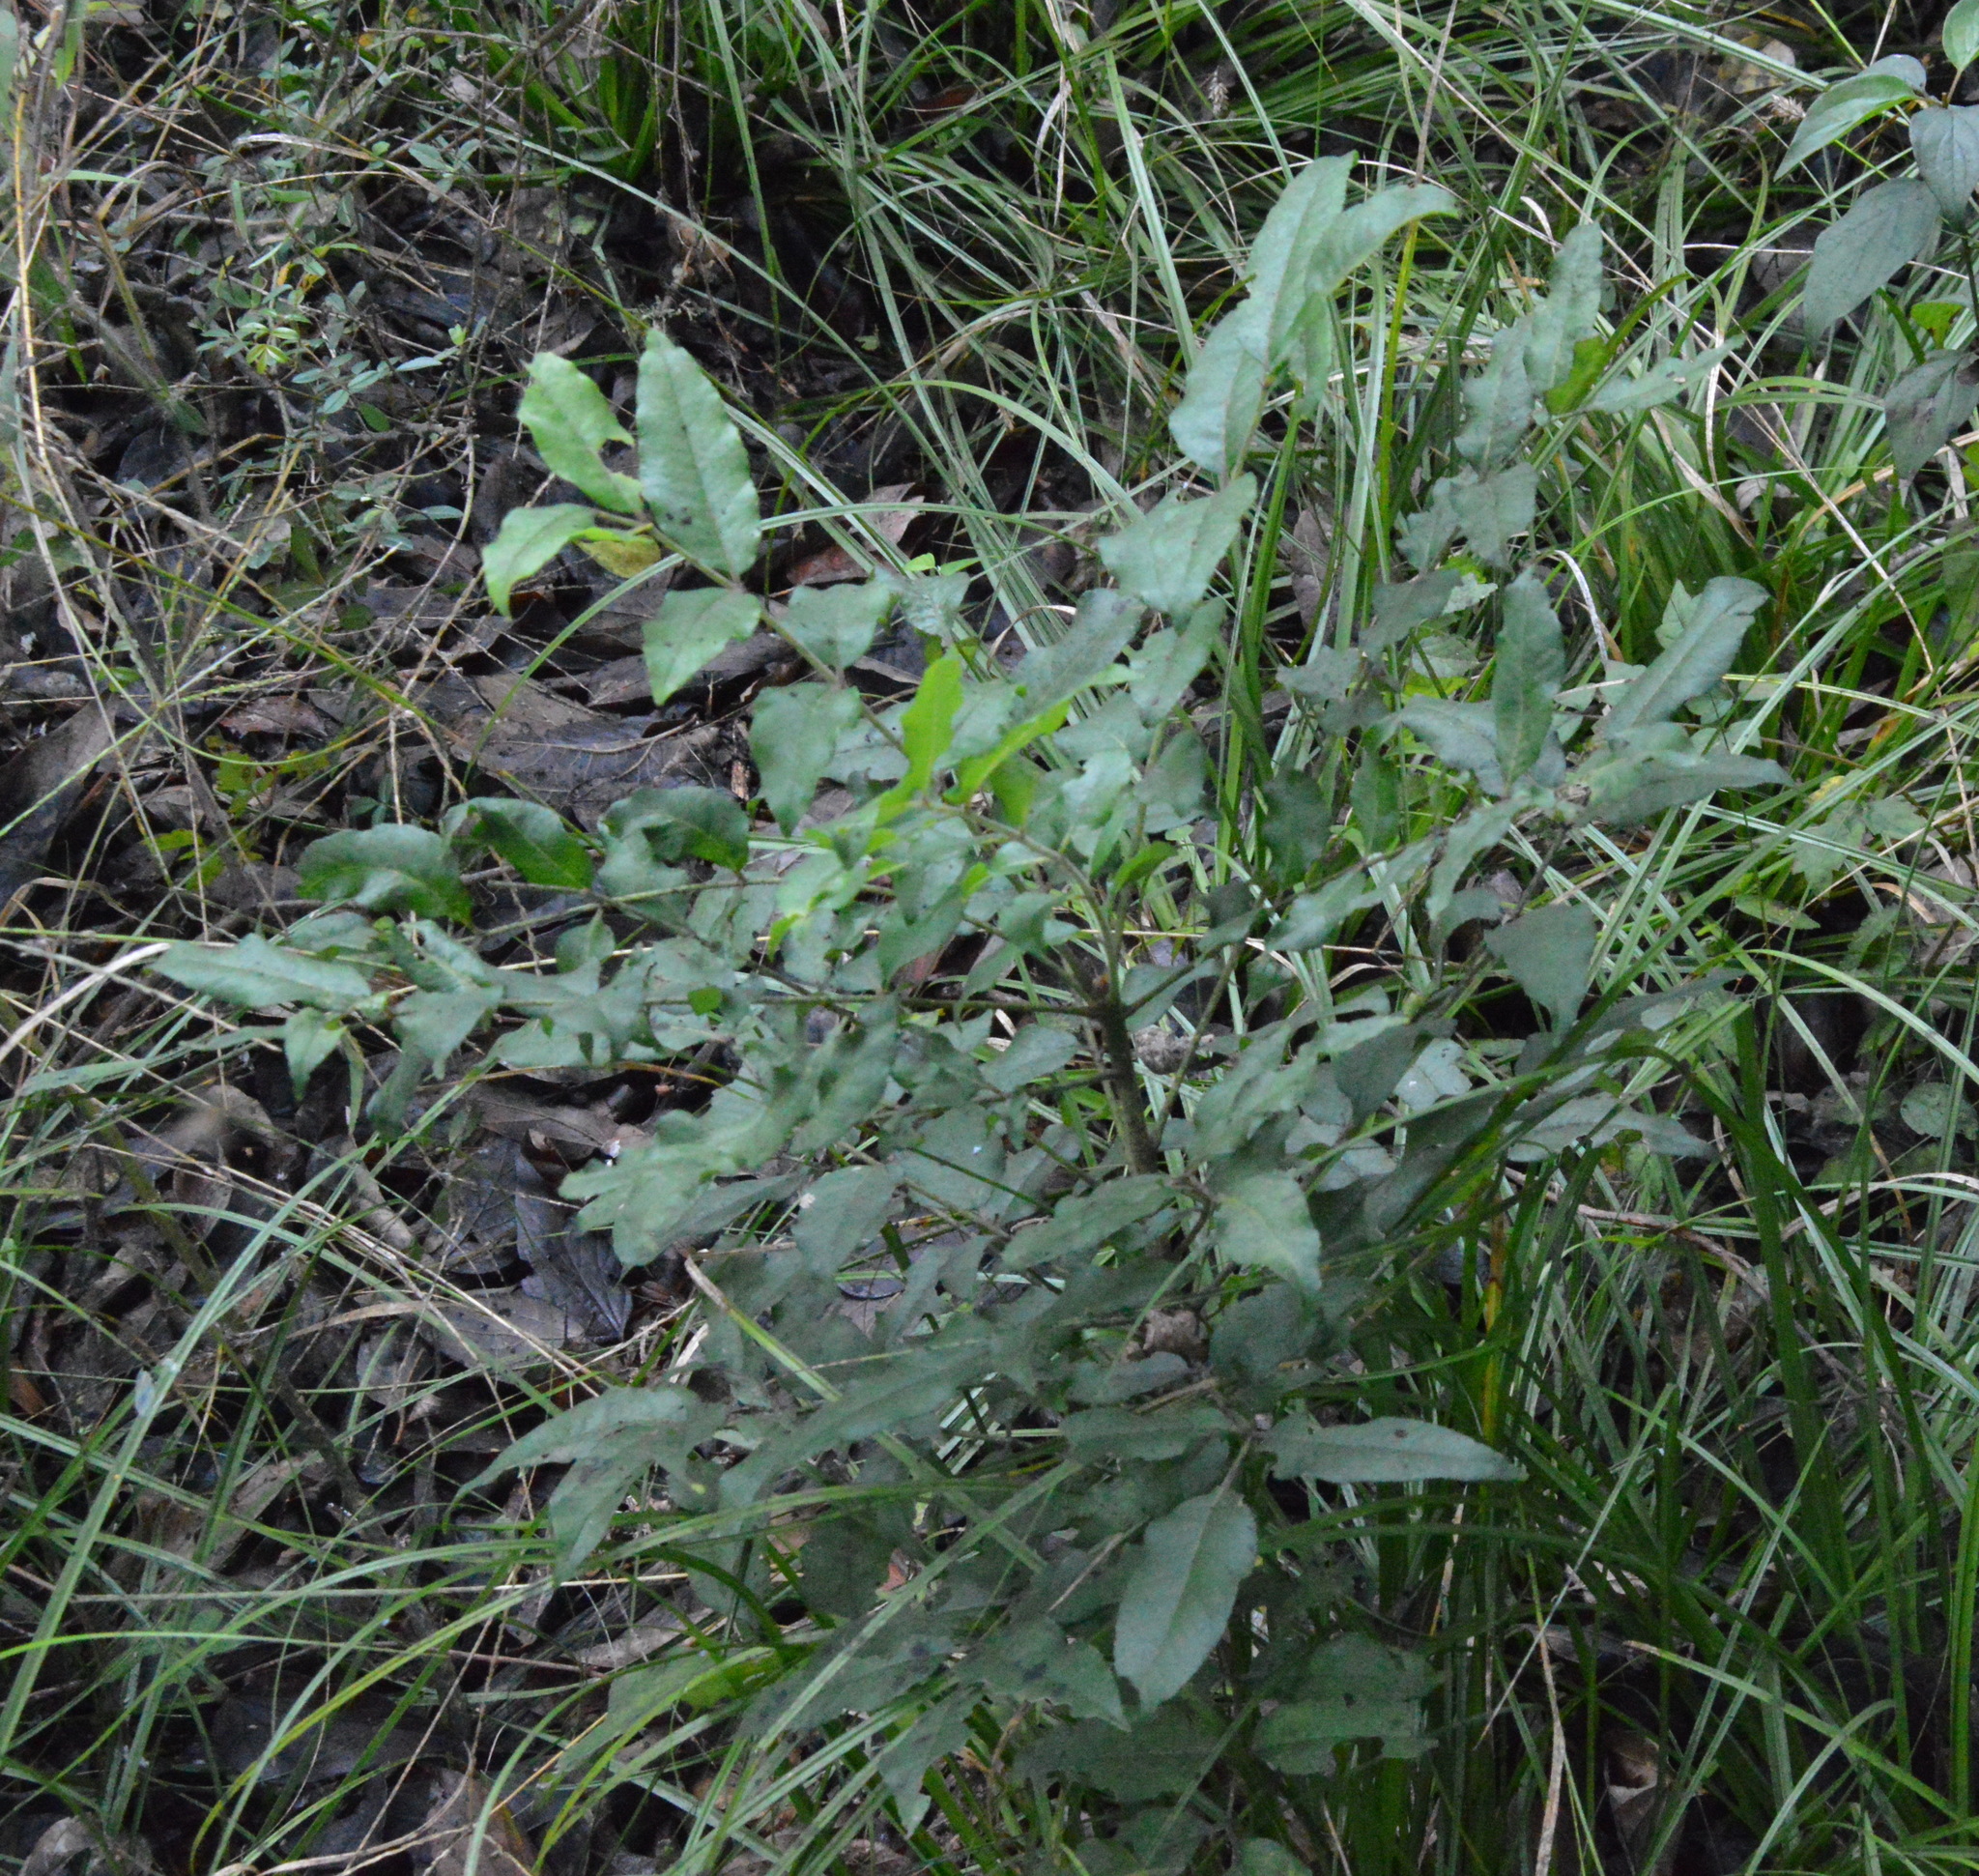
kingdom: Plantae
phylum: Tracheophyta
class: Magnoliopsida
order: Sapindales
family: Rutaceae
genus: Zanthoxylum
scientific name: Zanthoxylum clava-herculis
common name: Hercules'-club
